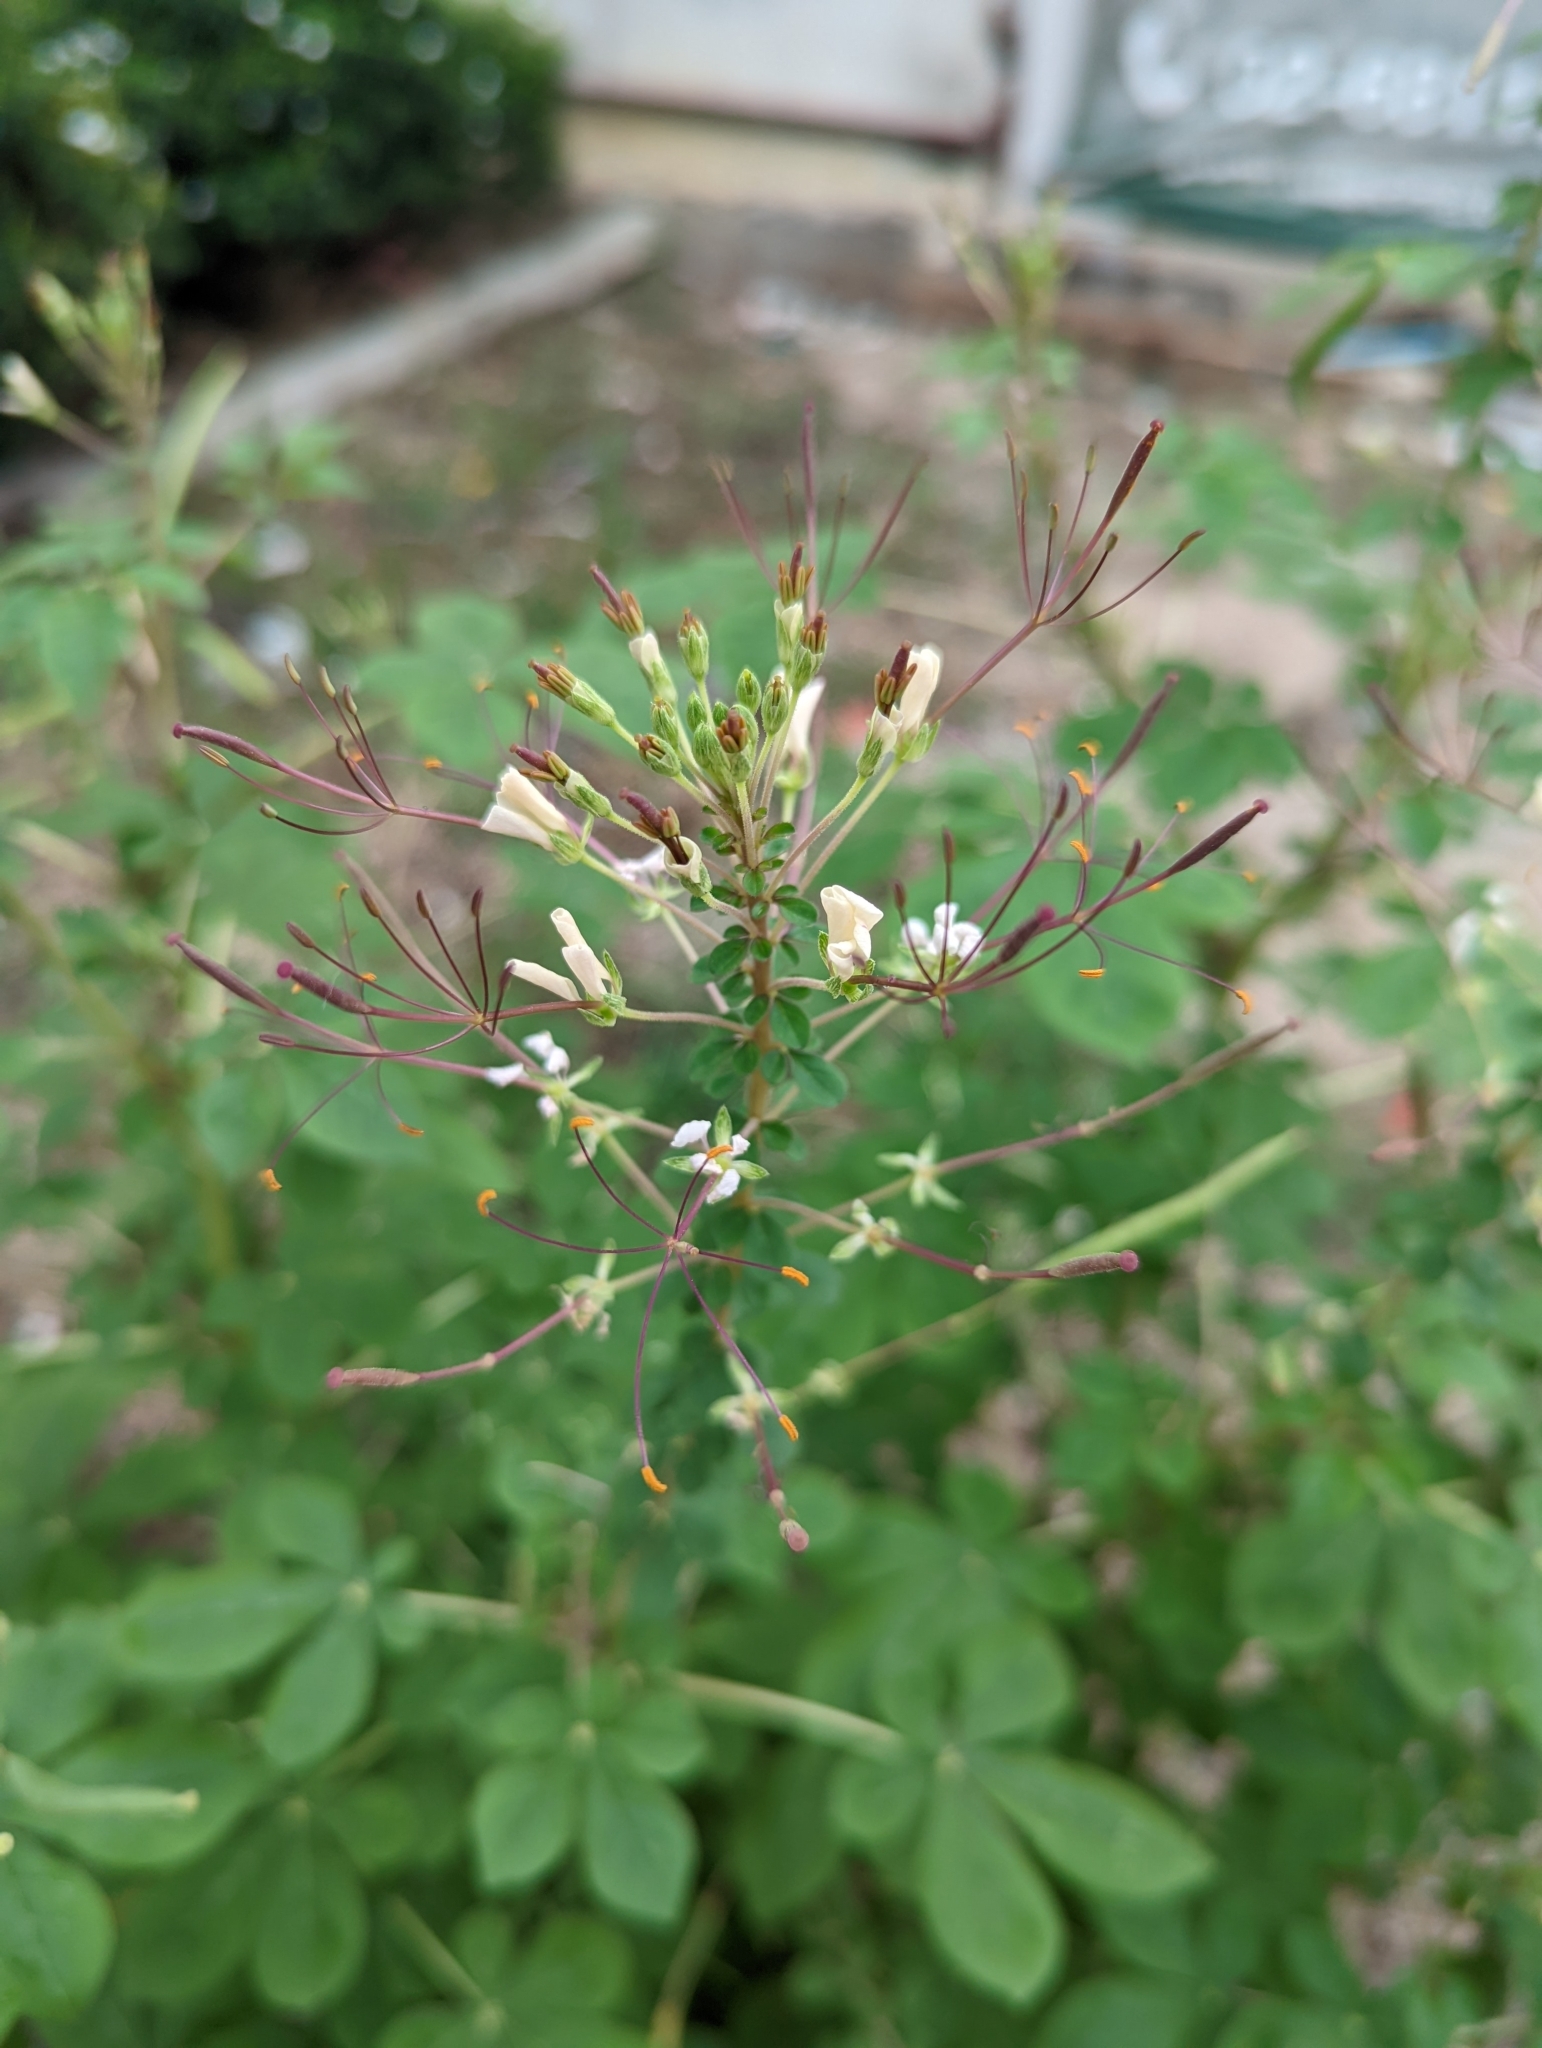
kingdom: Plantae
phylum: Tracheophyta
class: Magnoliopsida
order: Brassicales
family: Cleomaceae
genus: Gynandropsis
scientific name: Gynandropsis gynandra
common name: Spiderwisp
